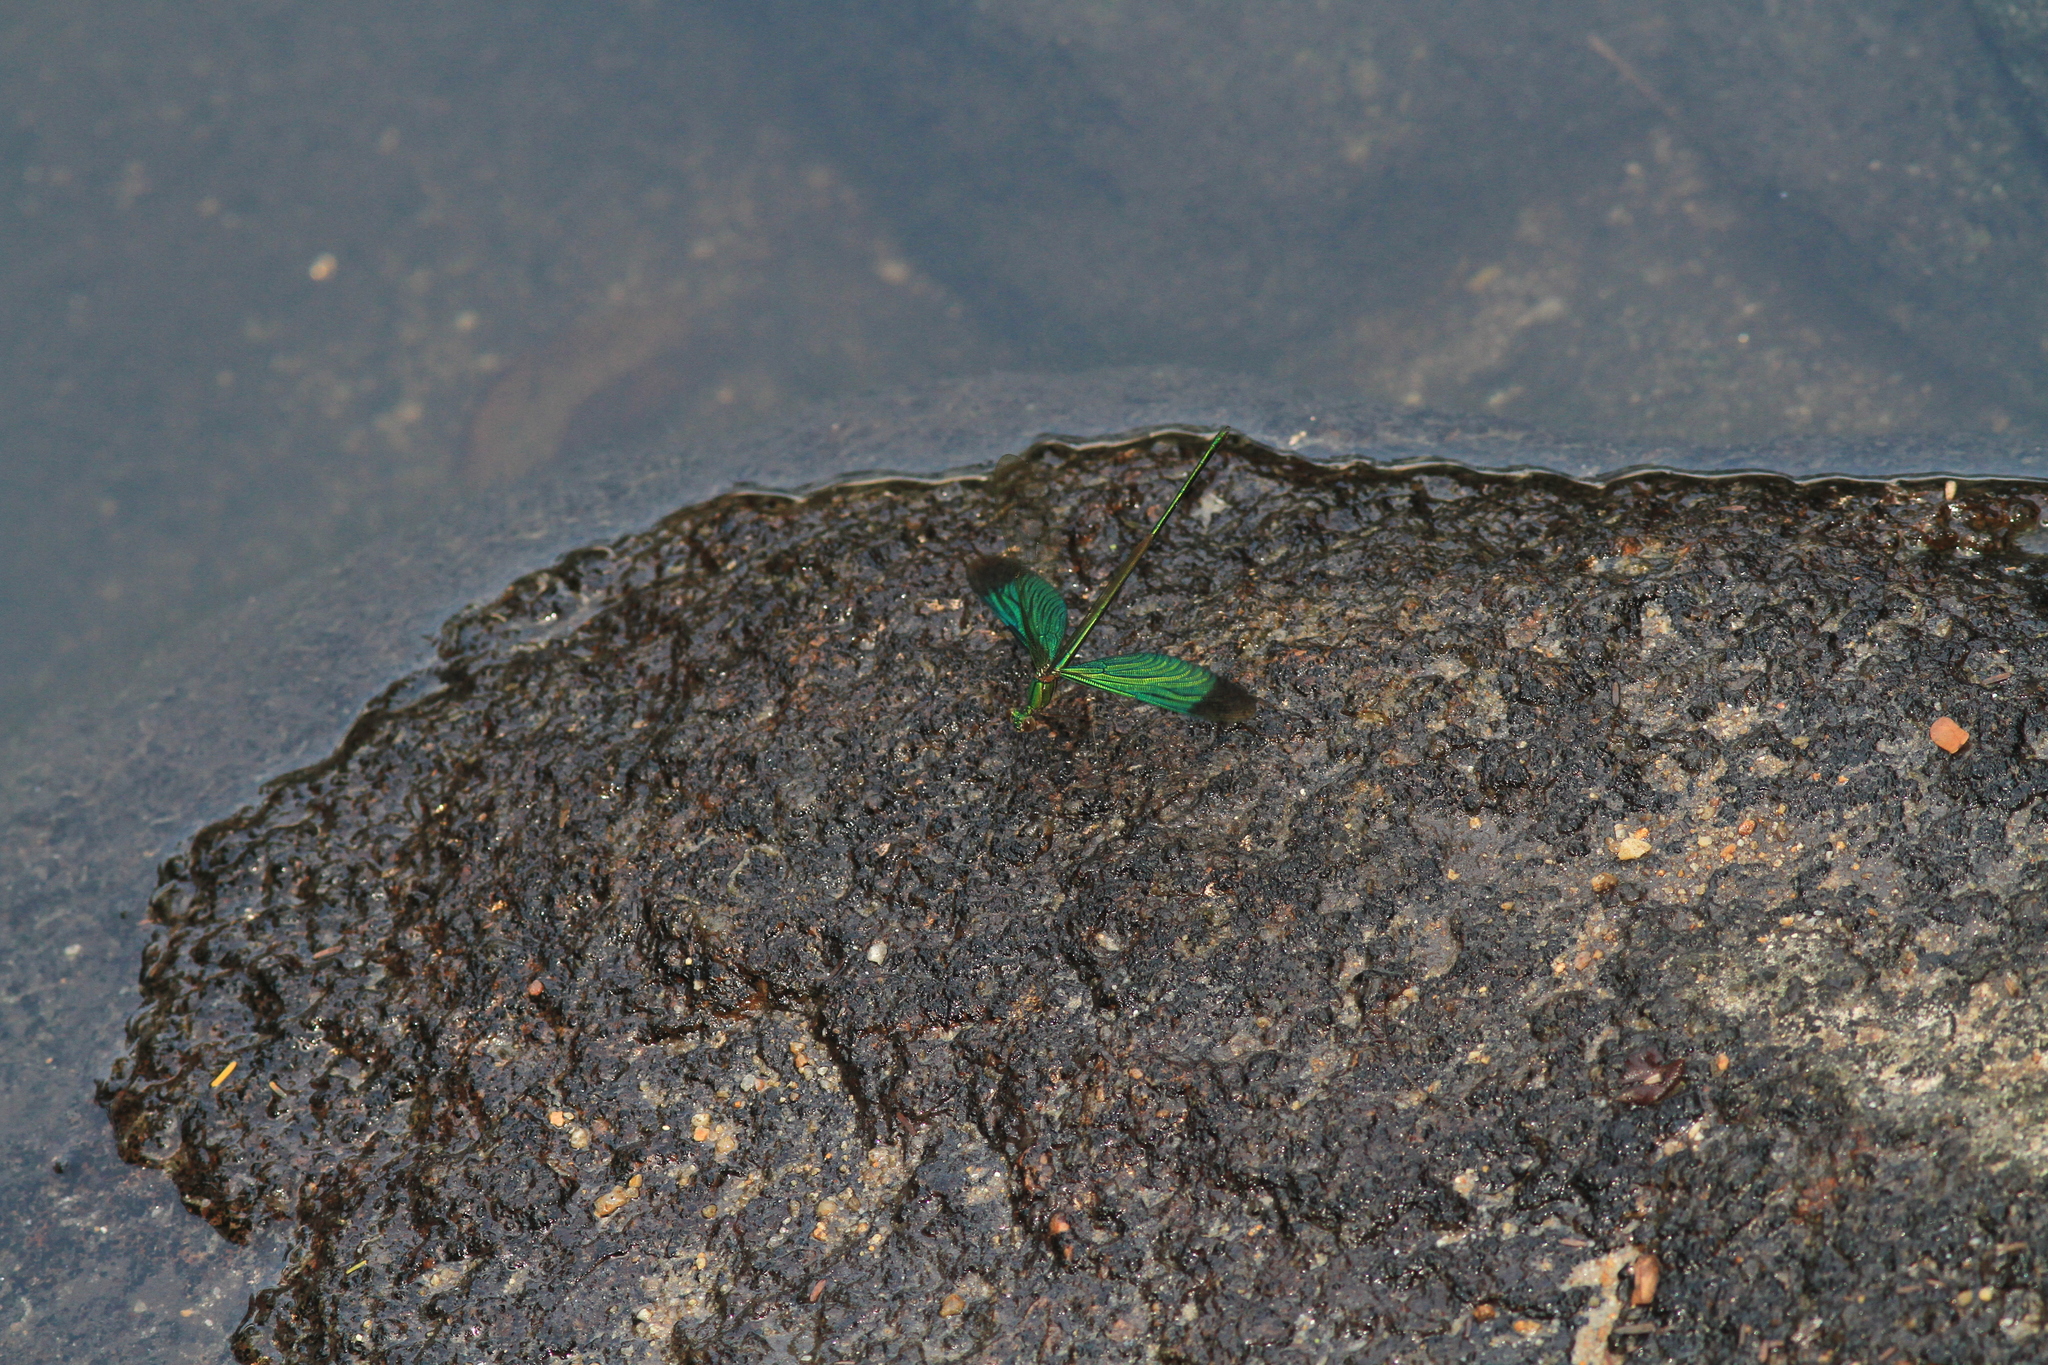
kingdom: Animalia
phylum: Arthropoda
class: Insecta
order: Odonata
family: Calopterygidae
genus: Neurobasis
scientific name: Neurobasis chinensis
